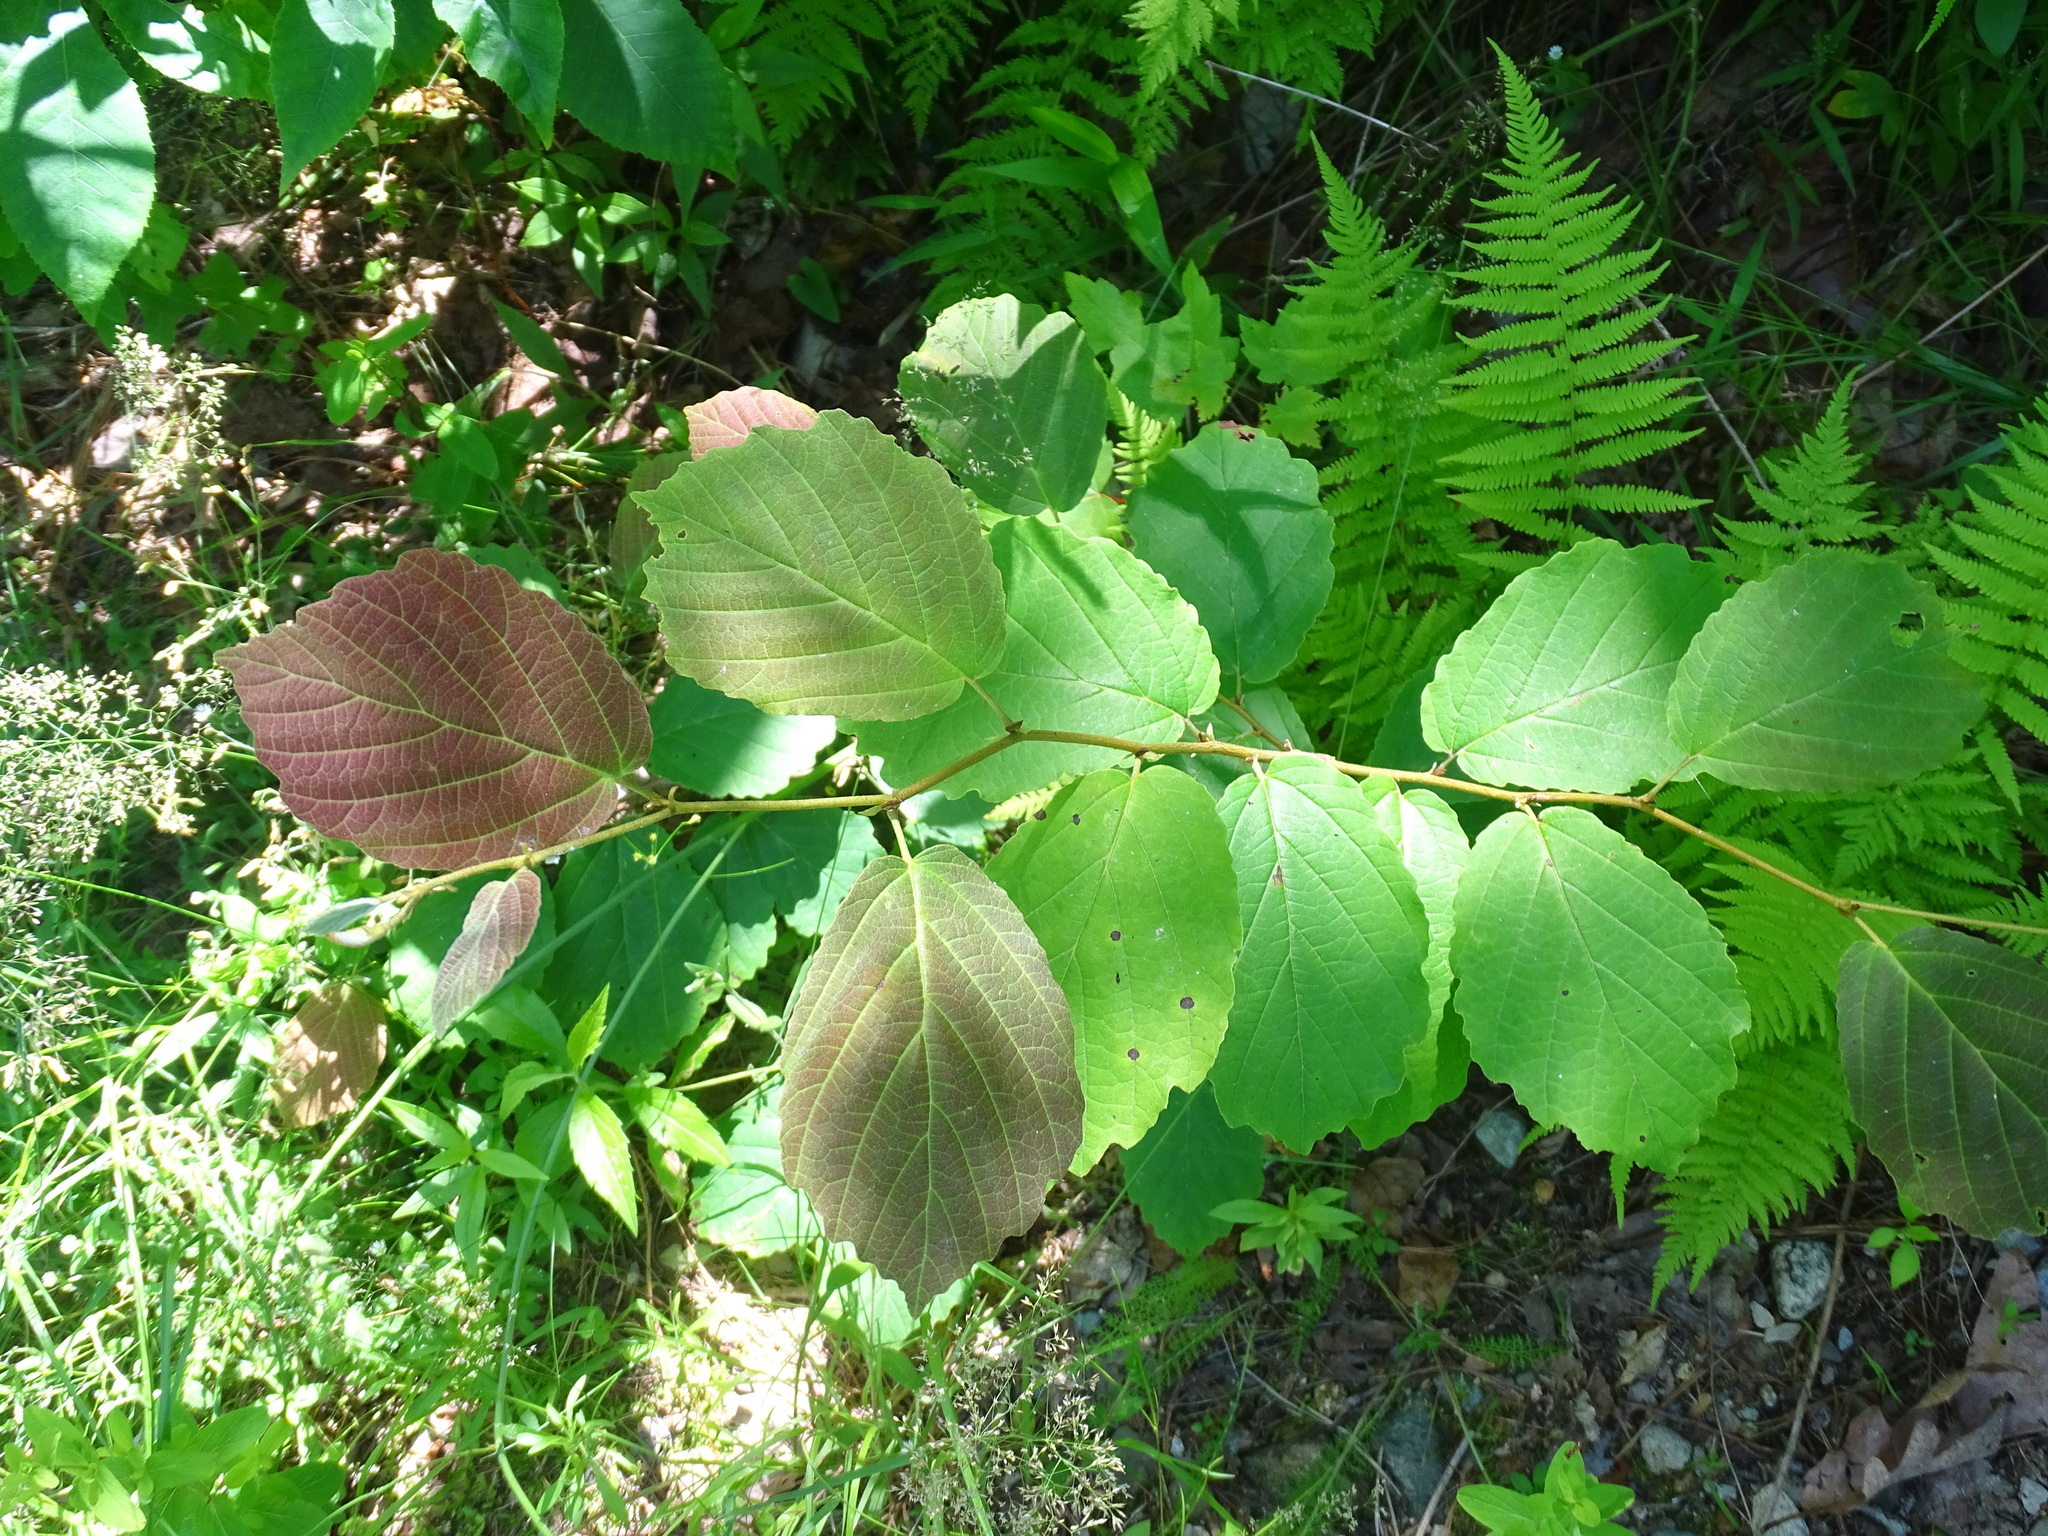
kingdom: Plantae
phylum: Tracheophyta
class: Magnoliopsida
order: Saxifragales
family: Hamamelidaceae
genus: Hamamelis
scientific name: Hamamelis virginiana
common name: Witch-hazel
